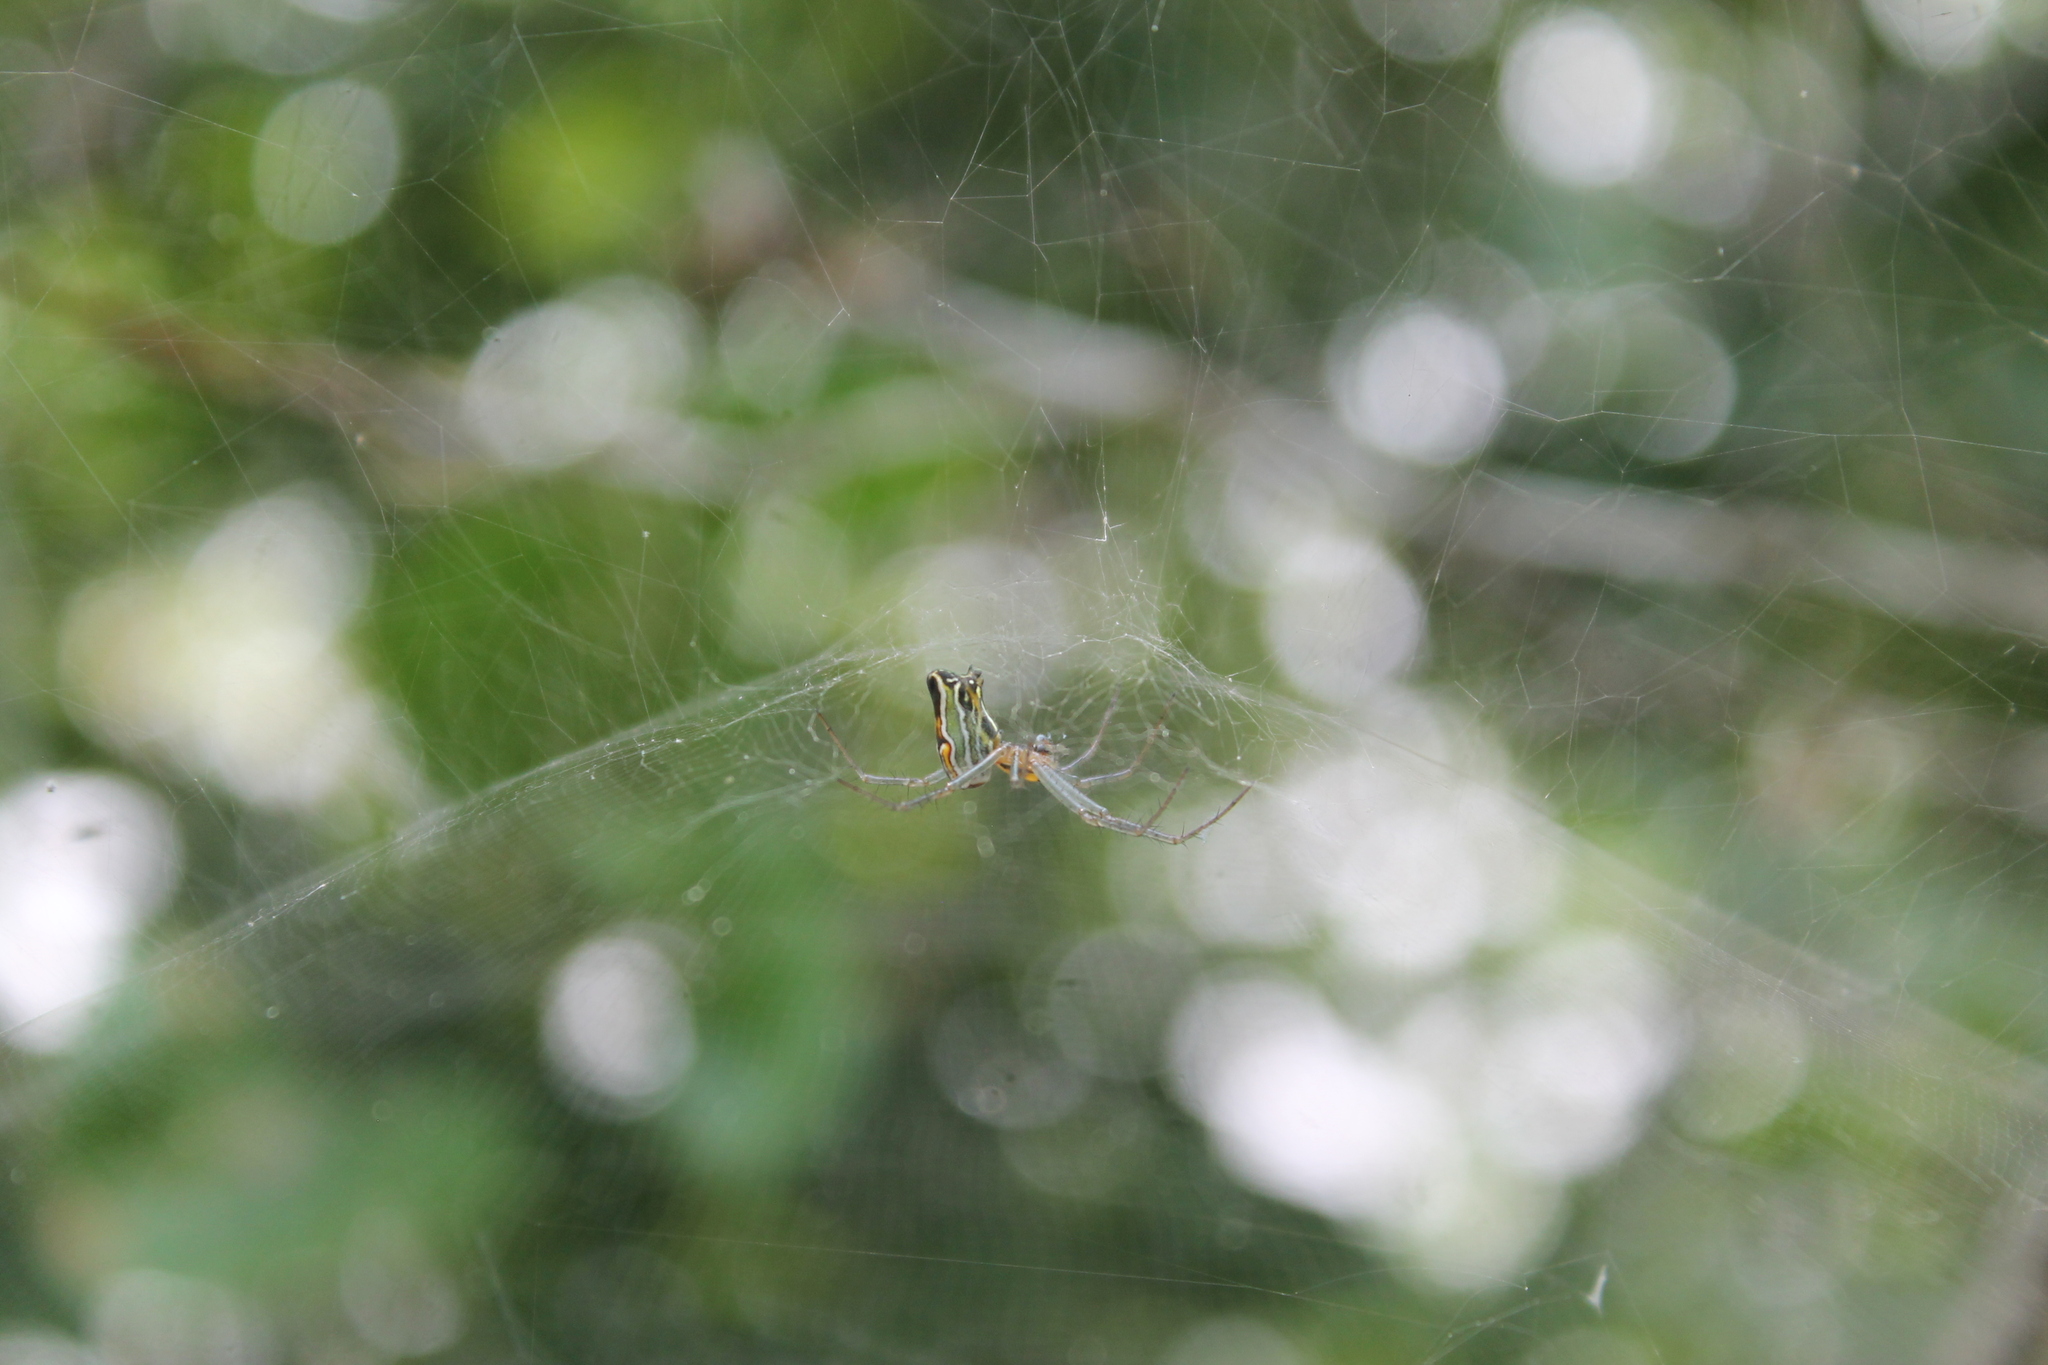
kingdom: Animalia
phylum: Arthropoda
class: Arachnida
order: Araneae
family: Araneidae
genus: Mecynogea
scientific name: Mecynogea lemniscata
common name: Orb weavers
